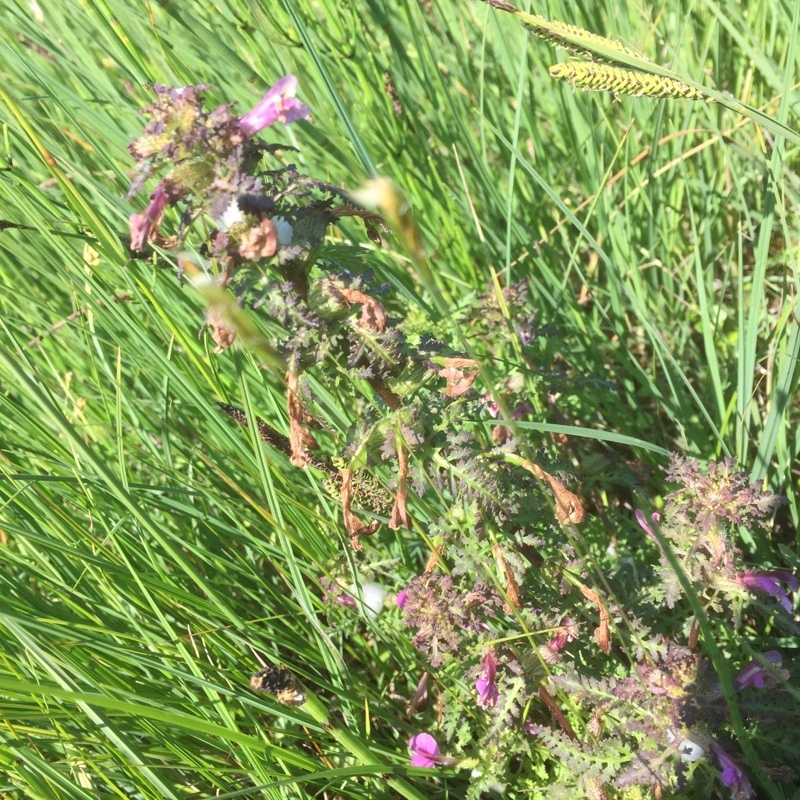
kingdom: Plantae
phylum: Tracheophyta
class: Magnoliopsida
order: Lamiales
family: Orobanchaceae
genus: Pedicularis
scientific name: Pedicularis palustris
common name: Marsh lousewort
